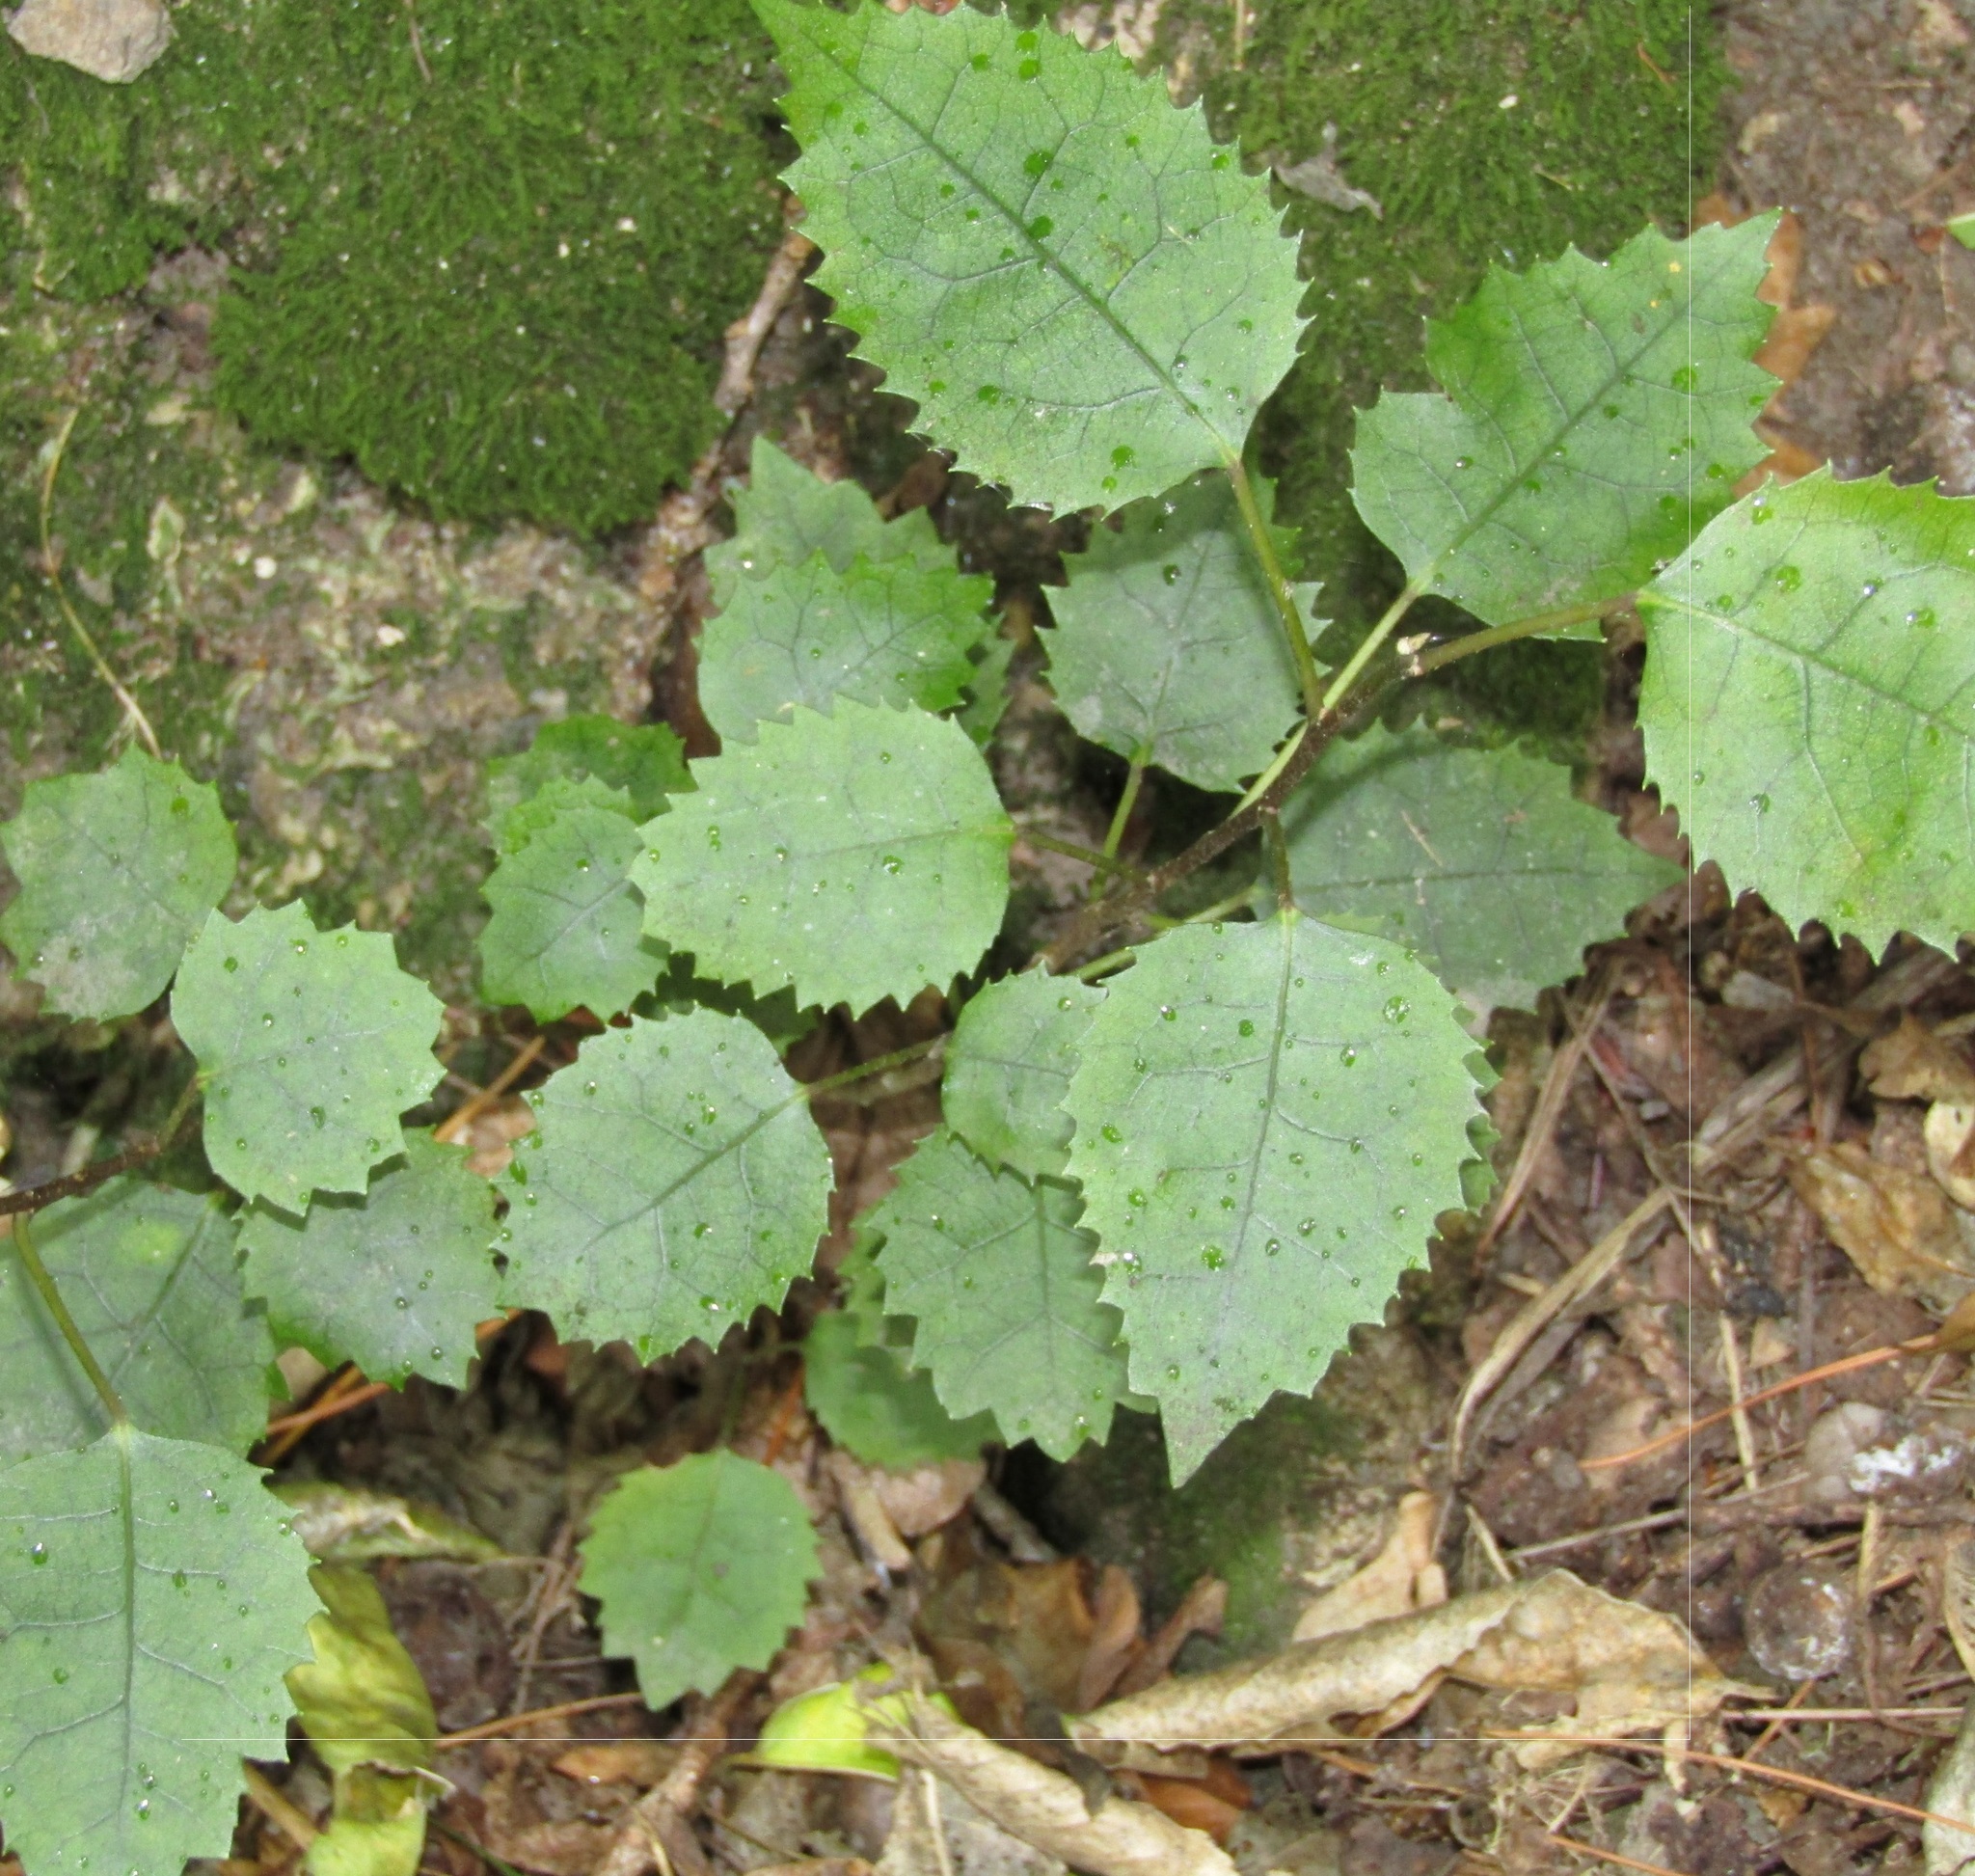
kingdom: Plantae
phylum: Tracheophyta
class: Magnoliopsida
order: Malvales
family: Malvaceae
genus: Hoheria
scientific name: Hoheria populnea
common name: Lacebark
